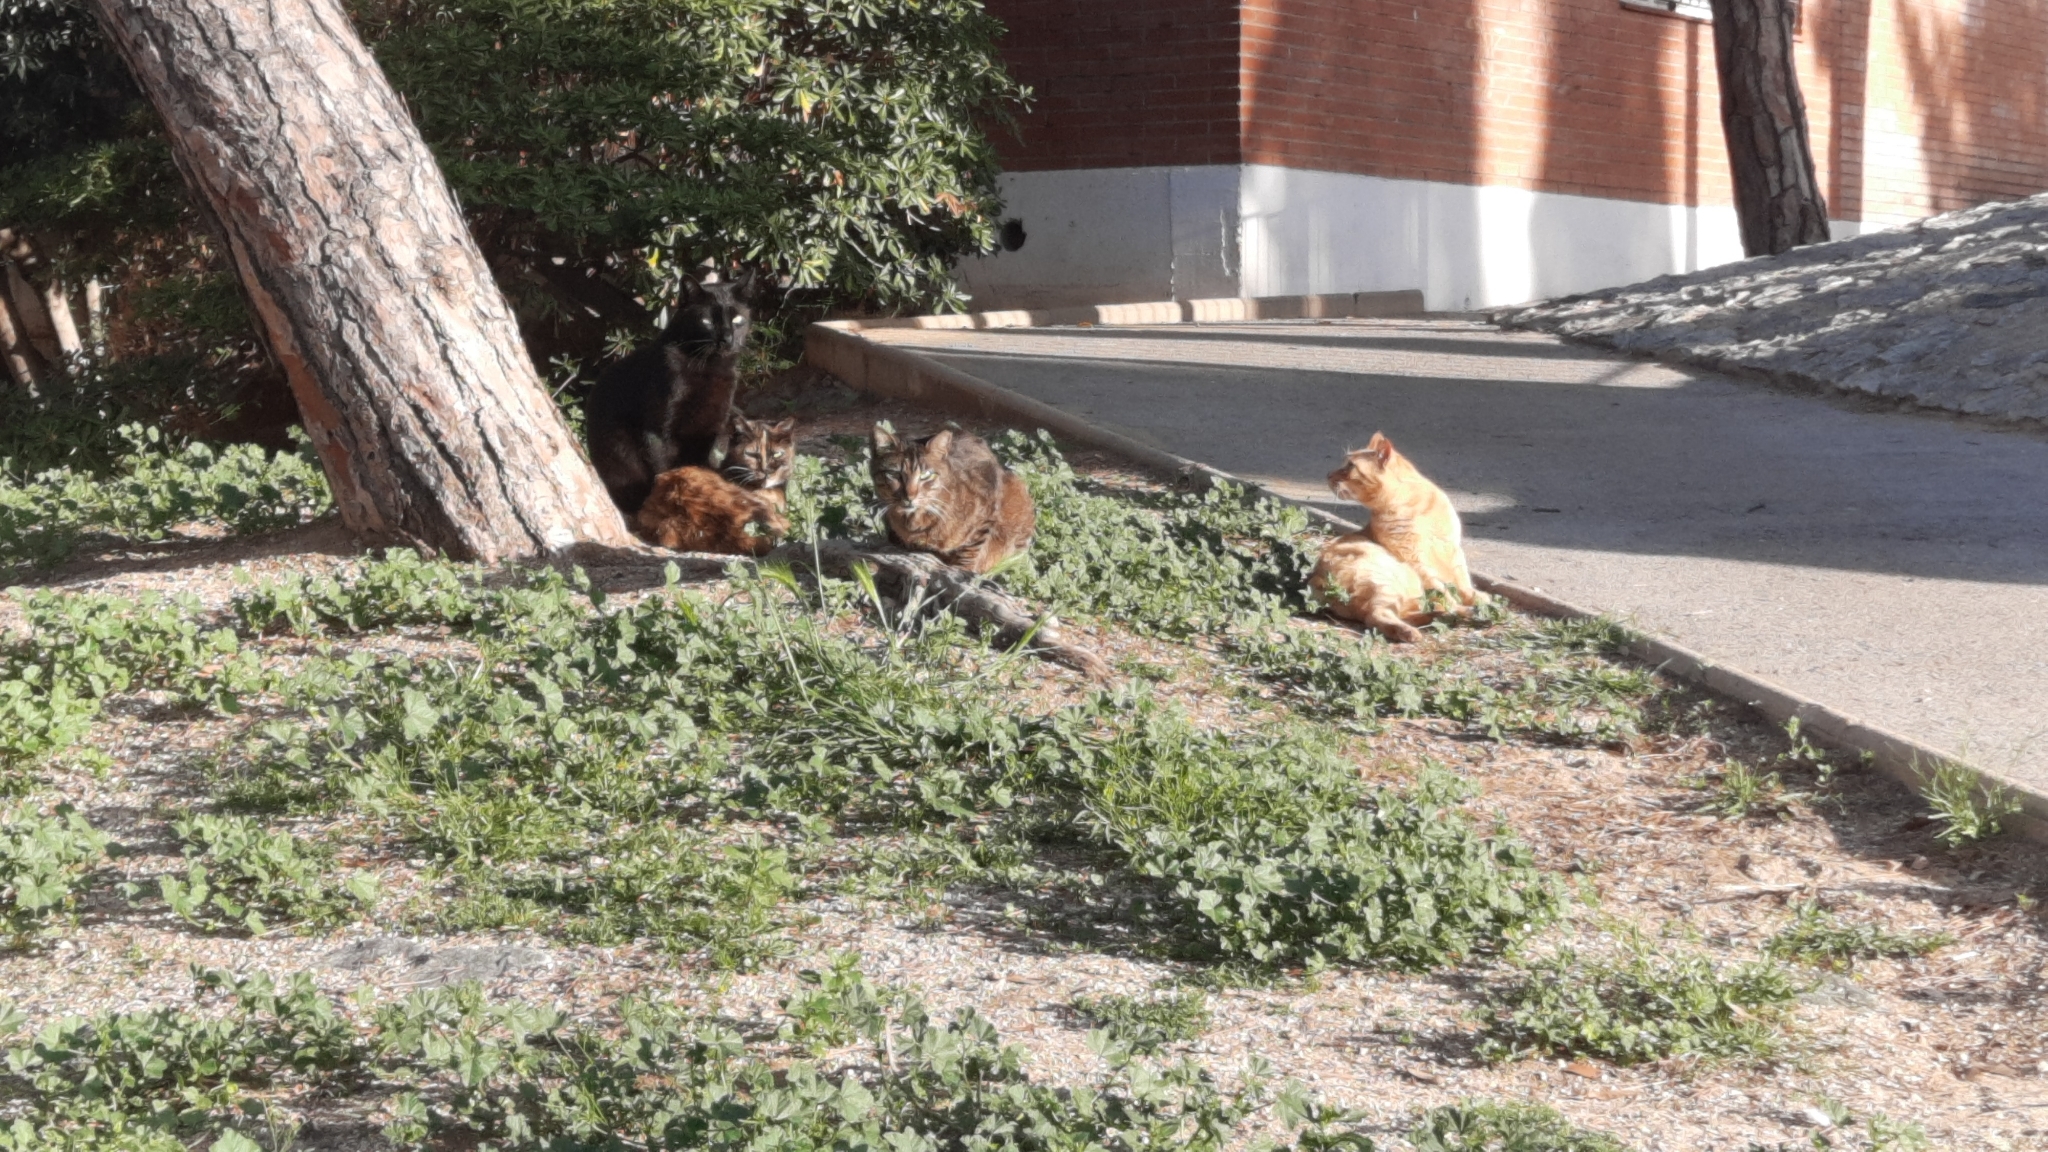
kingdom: Animalia
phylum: Chordata
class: Mammalia
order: Carnivora
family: Felidae
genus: Felis
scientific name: Felis catus
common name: Domestic cat
